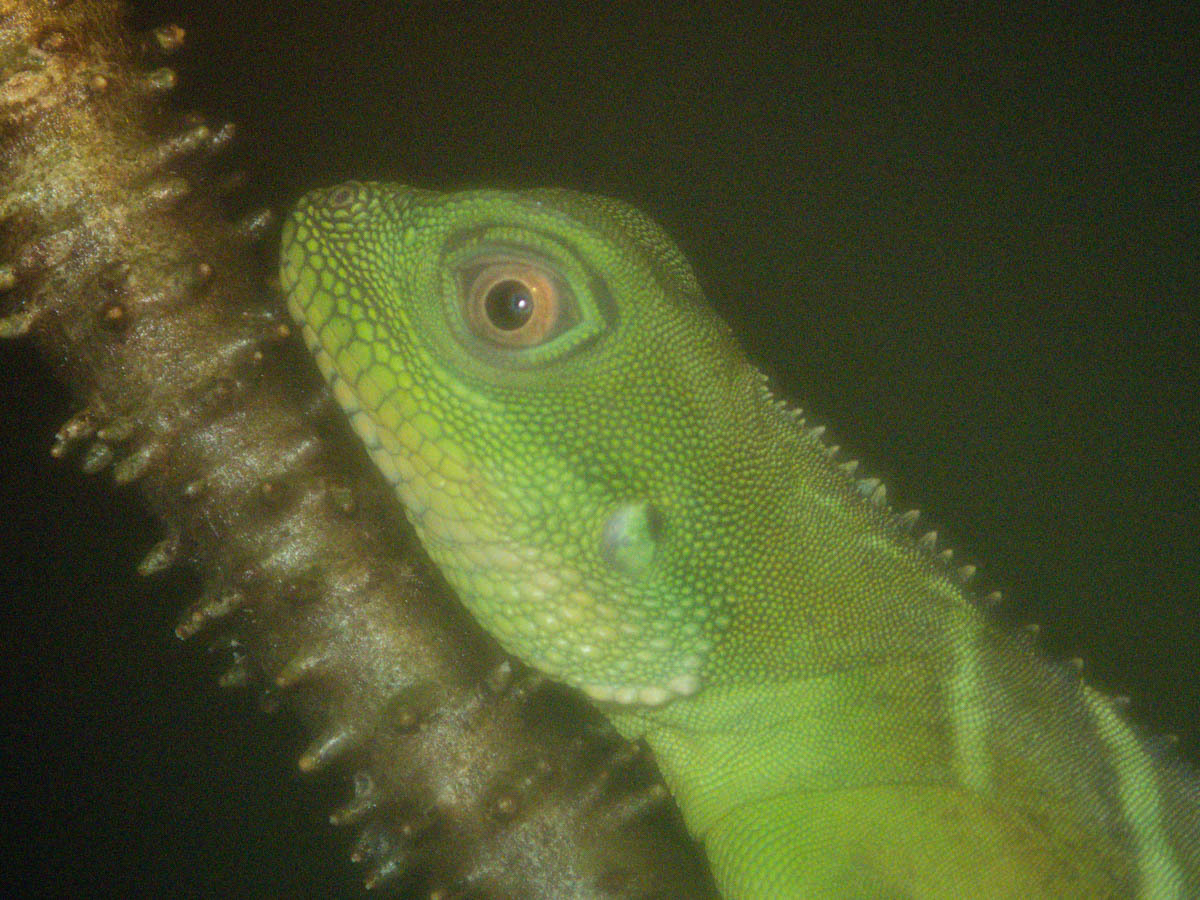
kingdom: Animalia
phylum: Chordata
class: Squamata
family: Agamidae
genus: Physignathus
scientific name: Physignathus cocincinus
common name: Asian water dragon
